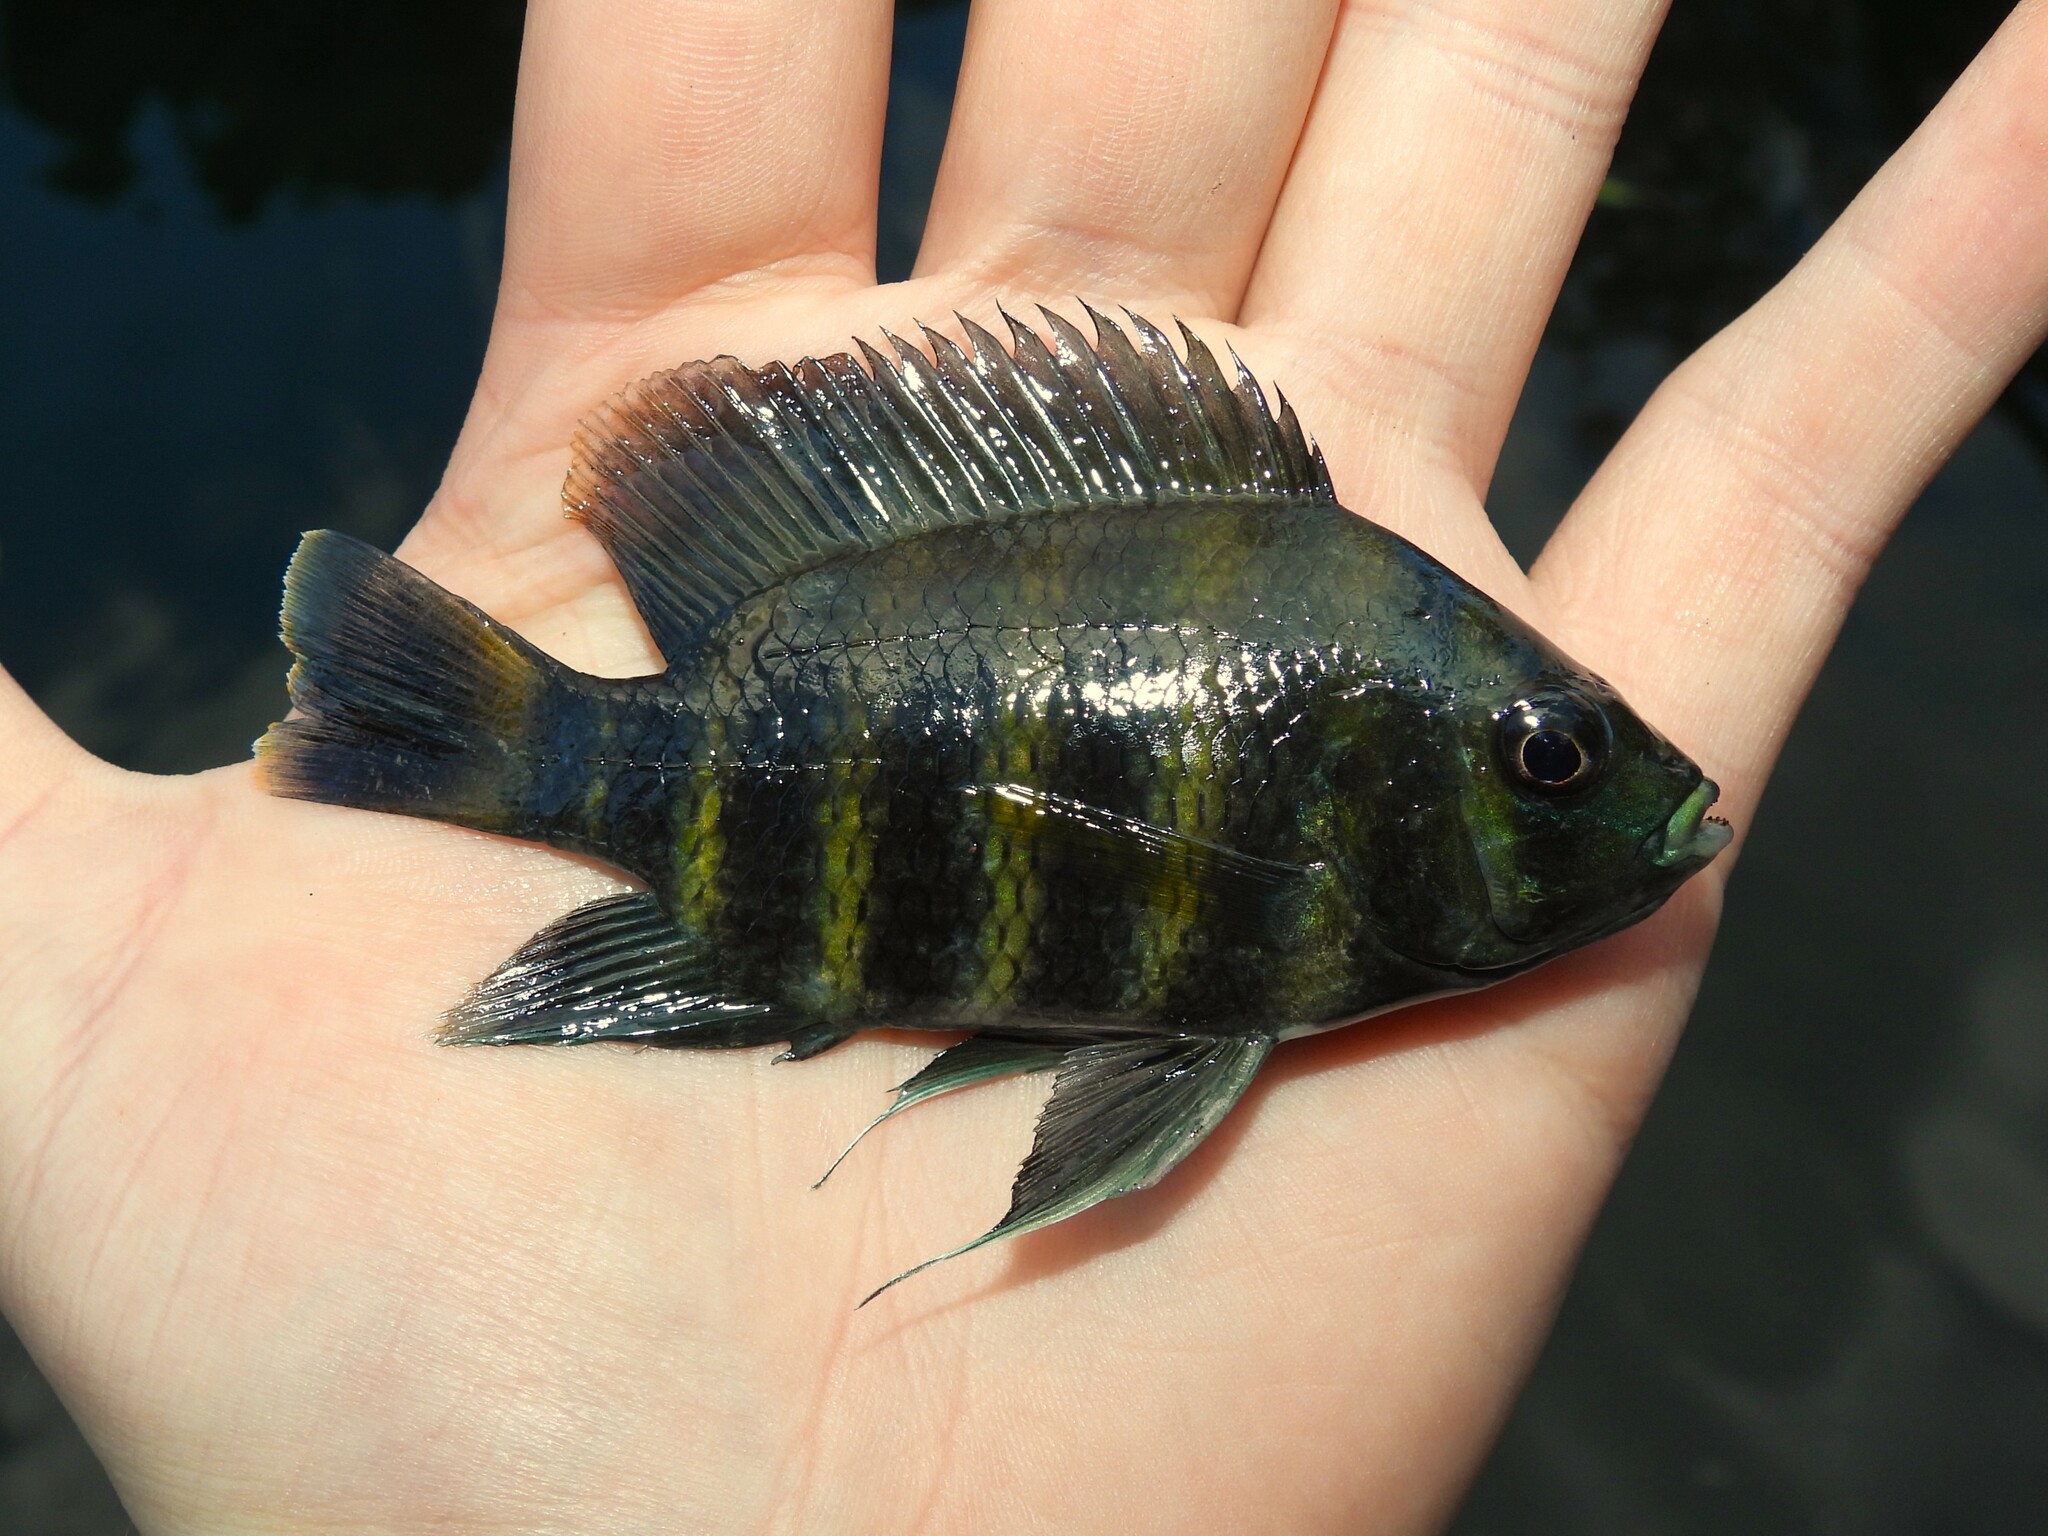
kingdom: Animalia
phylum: Chordata
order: Perciformes
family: Cichlidae
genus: Archocentrus
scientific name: Archocentrus Heterotilapia buettikoferi
